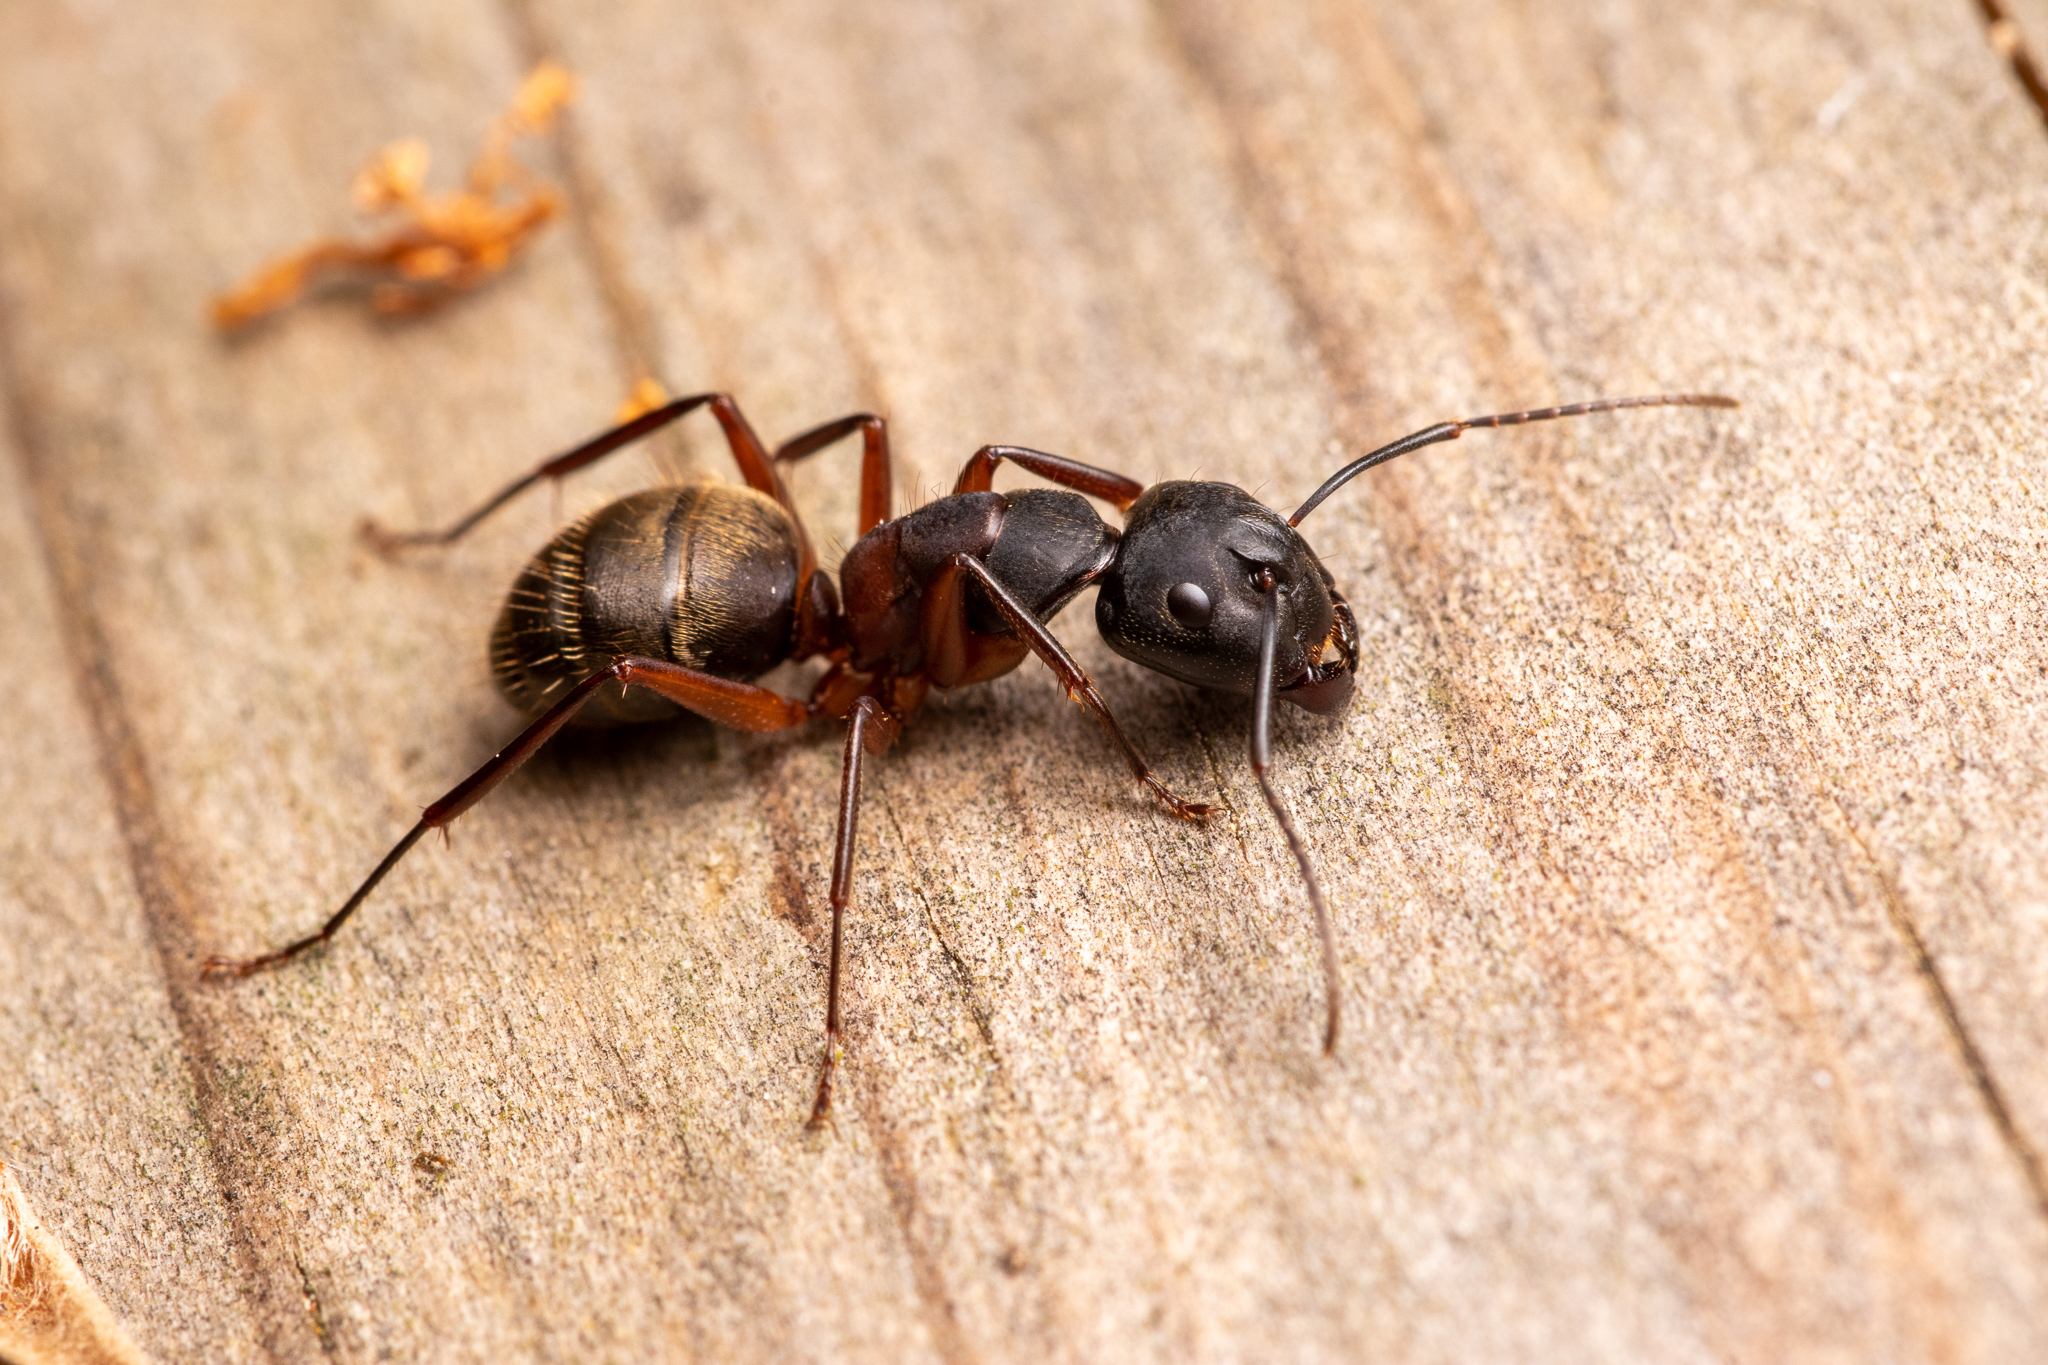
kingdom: Animalia
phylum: Arthropoda
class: Insecta
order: Hymenoptera
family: Formicidae
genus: Camponotus
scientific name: Camponotus chromaiodes
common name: Red carpenter ant
